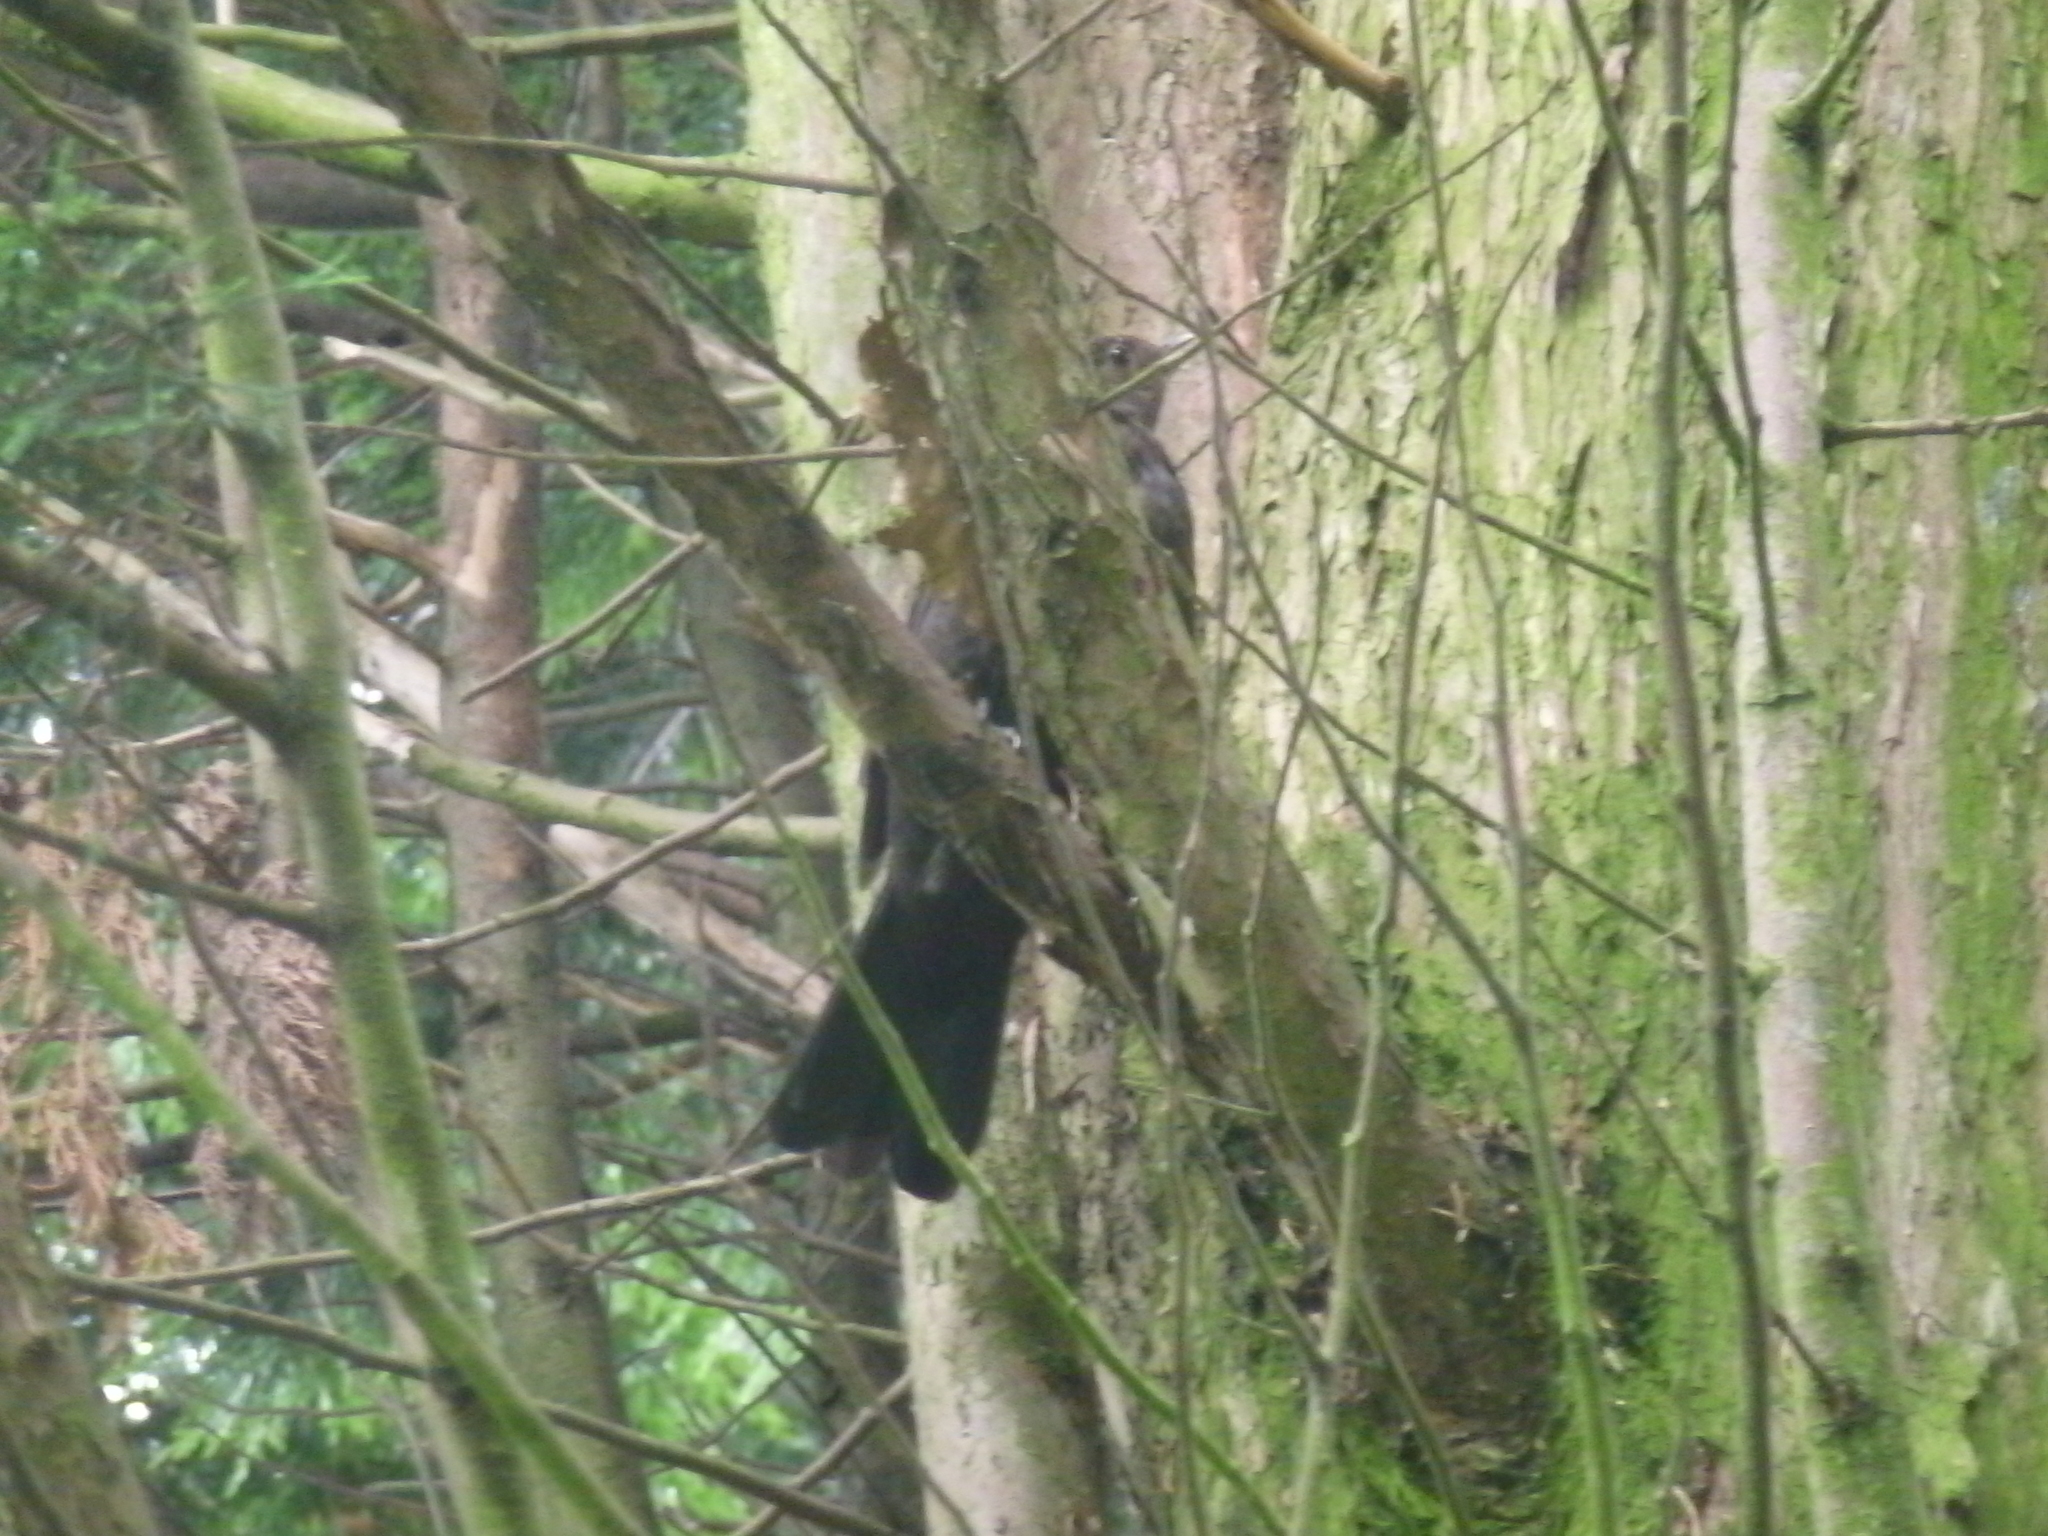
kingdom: Animalia
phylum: Chordata
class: Aves
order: Passeriformes
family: Turdidae
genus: Turdus
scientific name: Turdus merula
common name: Common blackbird
